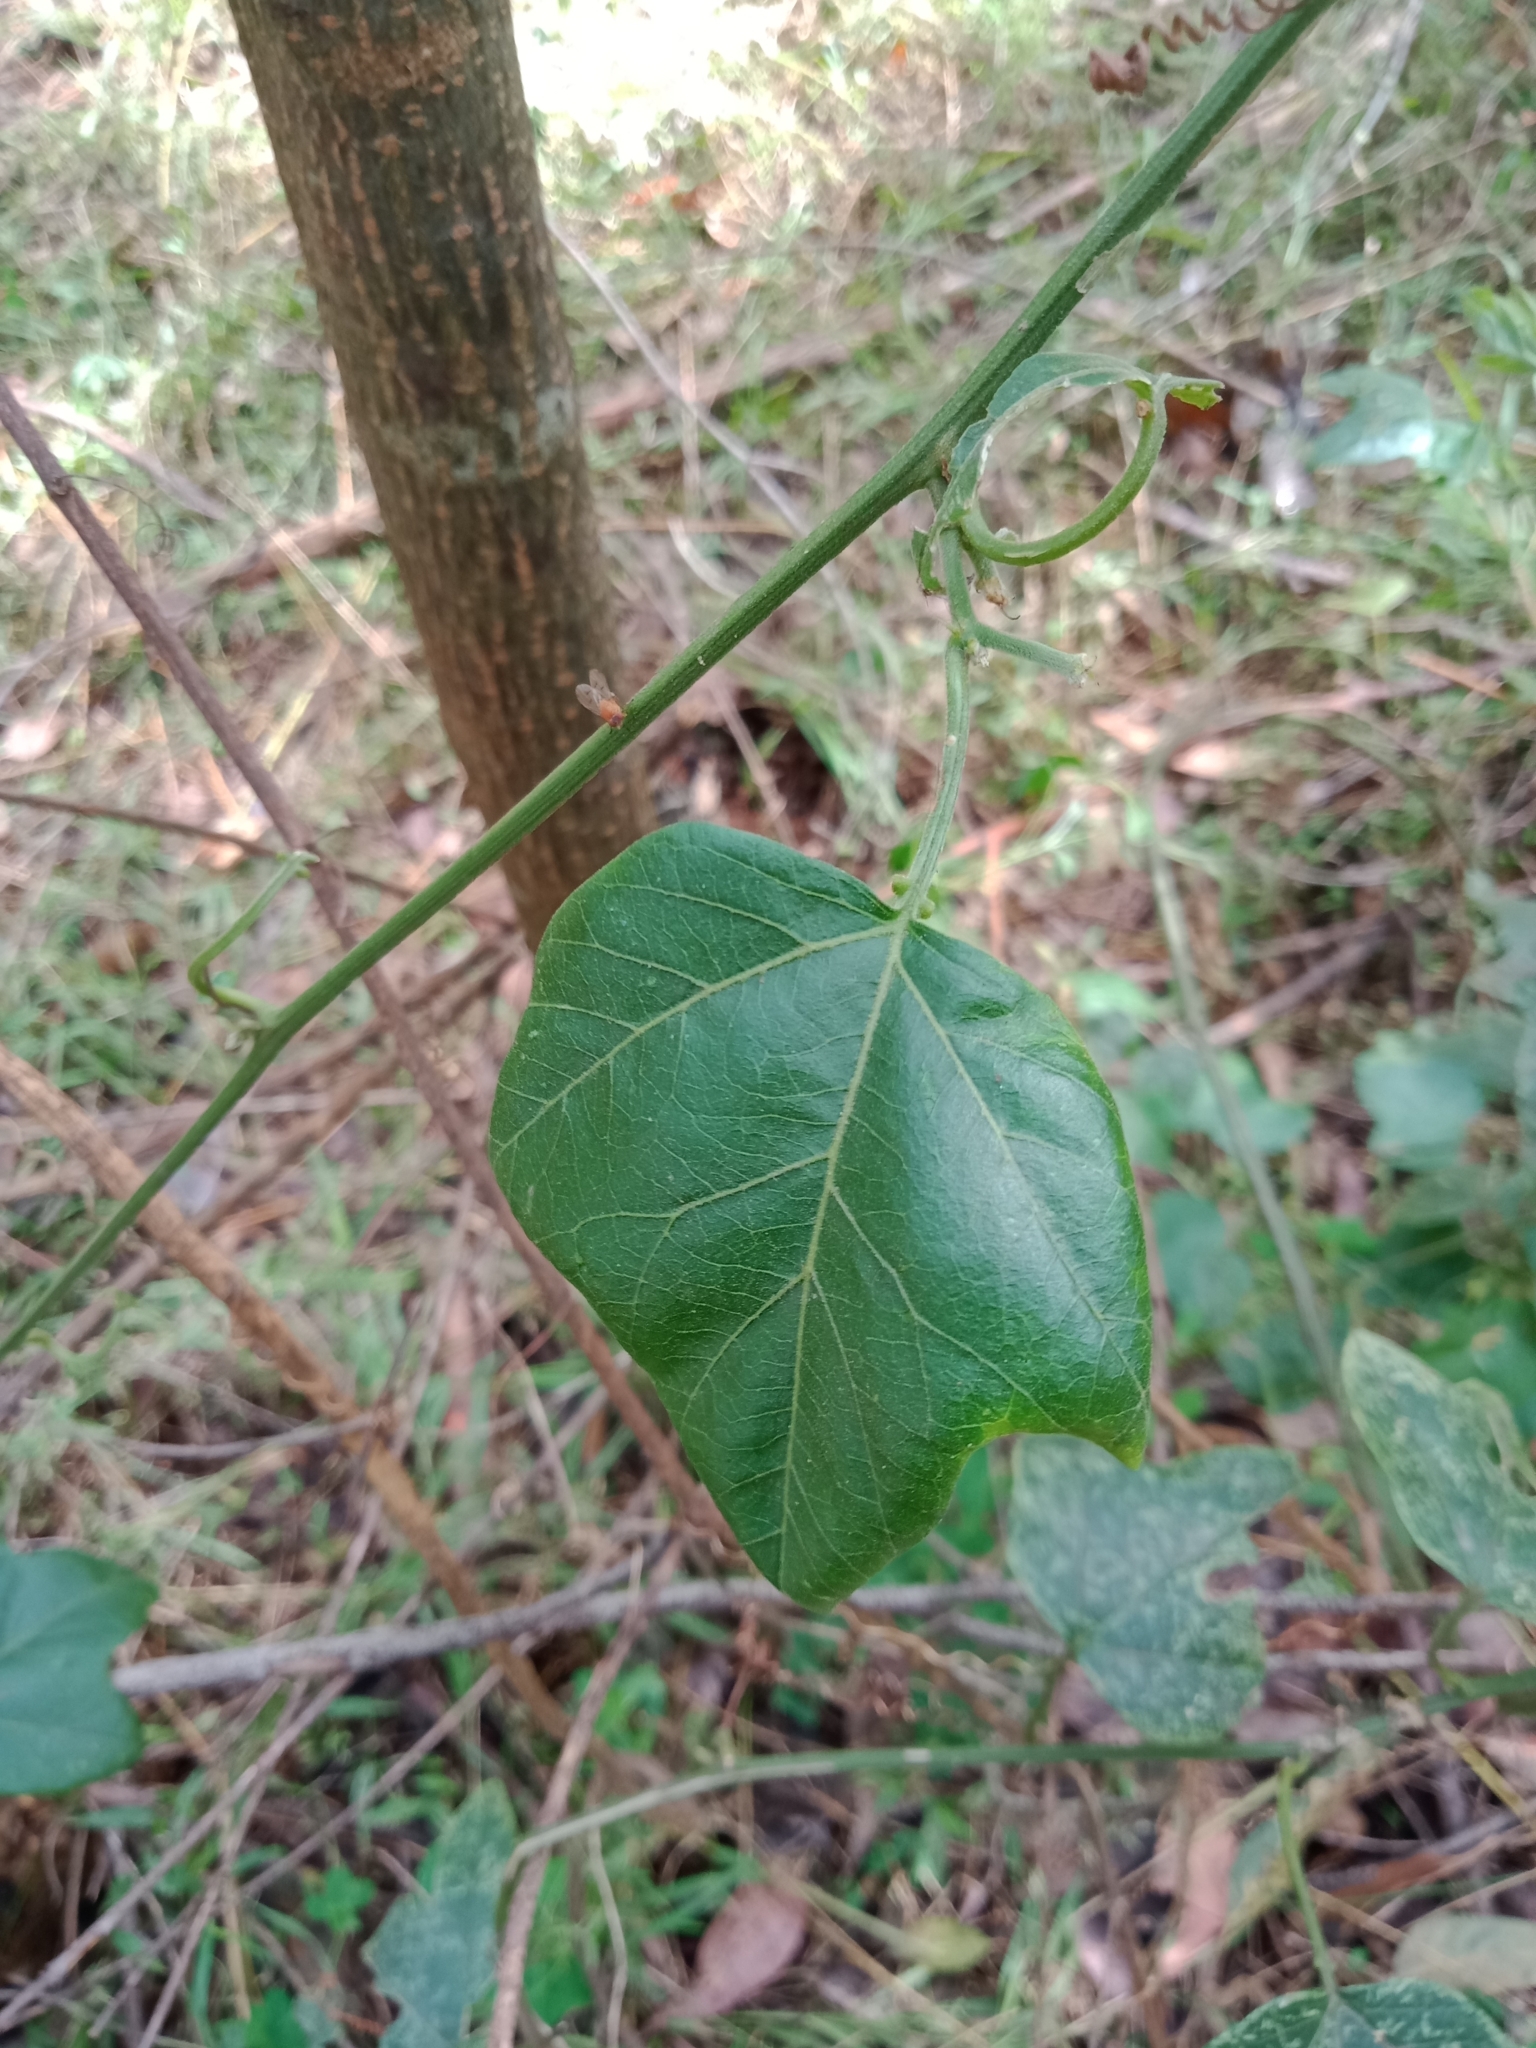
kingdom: Plantae
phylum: Tracheophyta
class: Magnoliopsida
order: Malpighiales
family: Passifloraceae
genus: Passiflora
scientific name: Passiflora herbertiana
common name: Yellow passionflower
